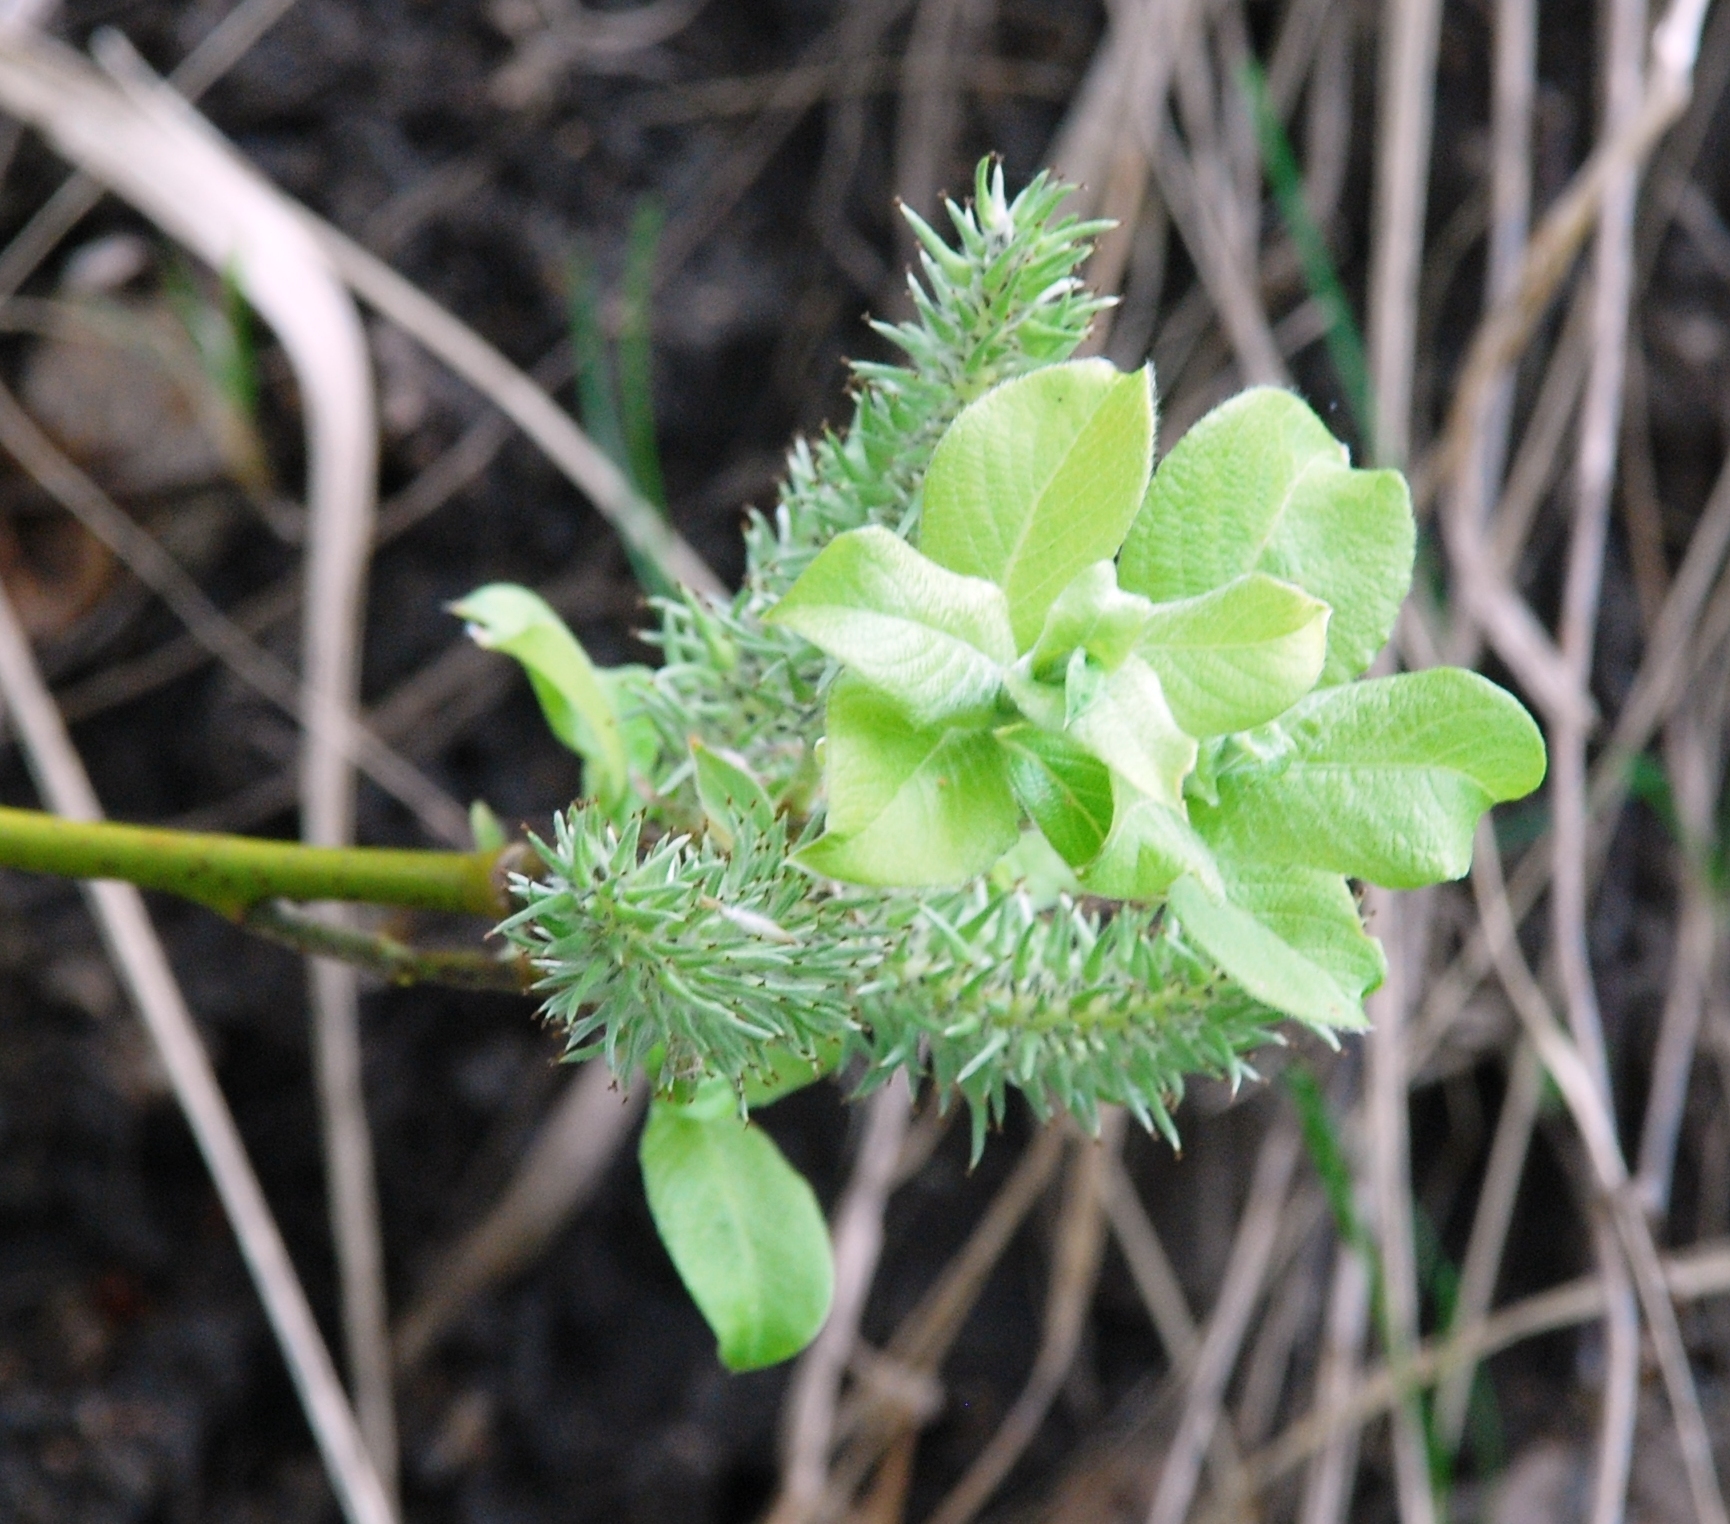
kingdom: Plantae
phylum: Tracheophyta
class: Magnoliopsida
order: Malpighiales
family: Salicaceae
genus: Salix
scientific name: Salix caprea
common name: Goat willow
